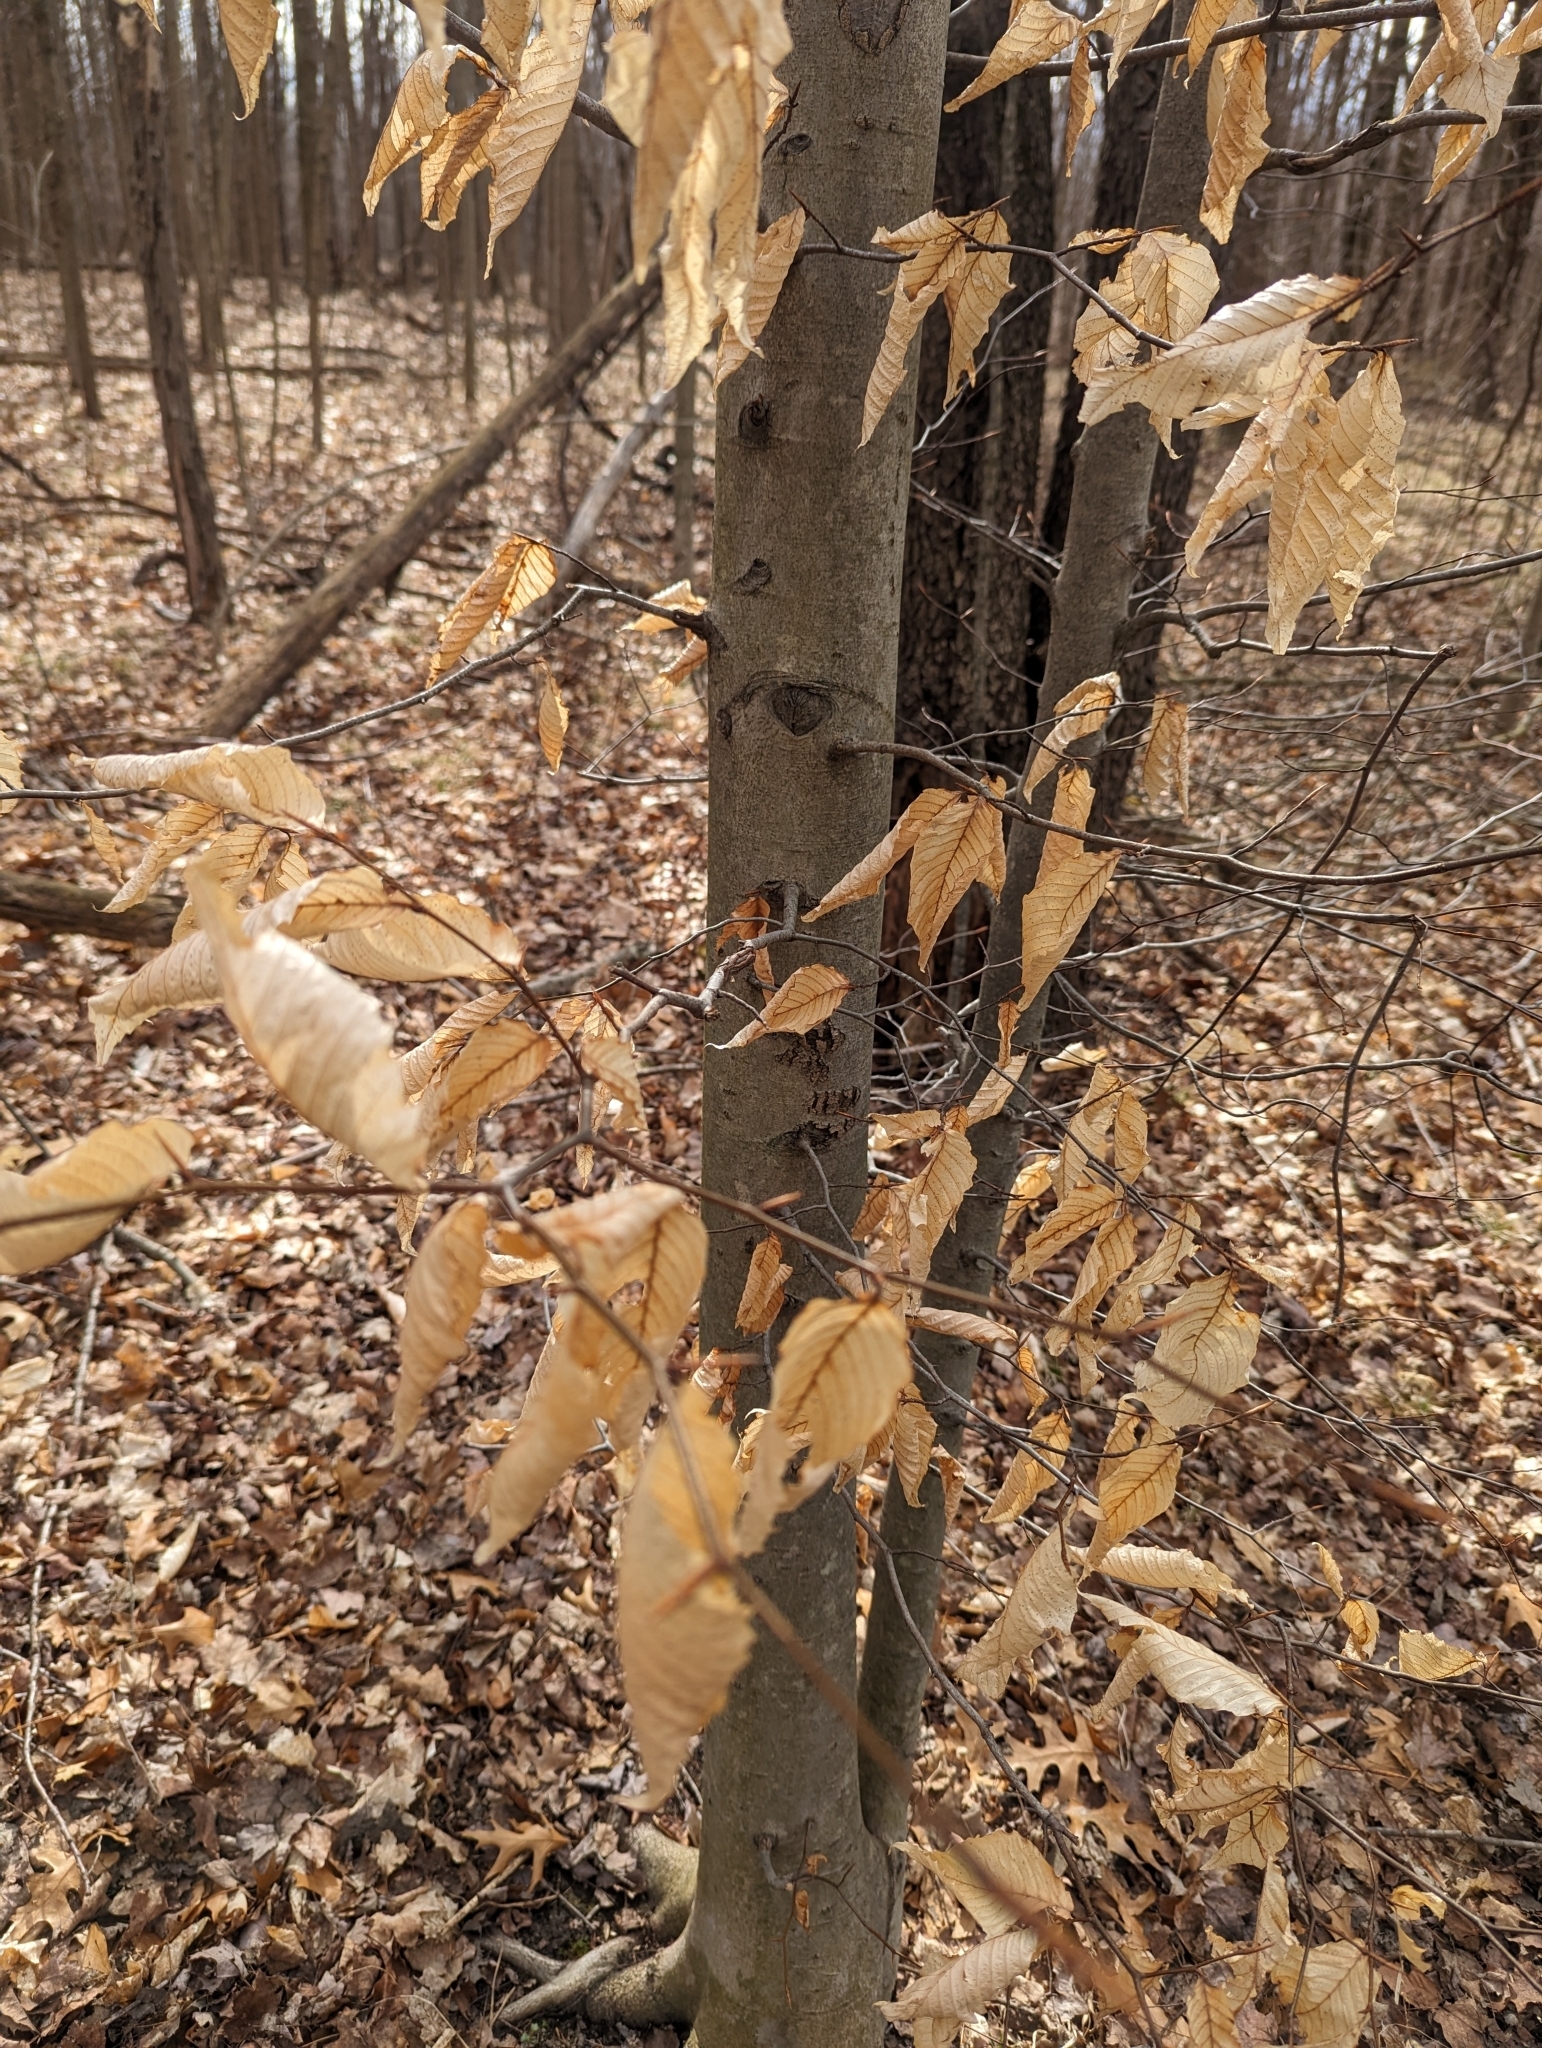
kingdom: Plantae
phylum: Tracheophyta
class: Magnoliopsida
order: Fagales
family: Fagaceae
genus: Fagus
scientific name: Fagus grandifolia
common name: American beech
